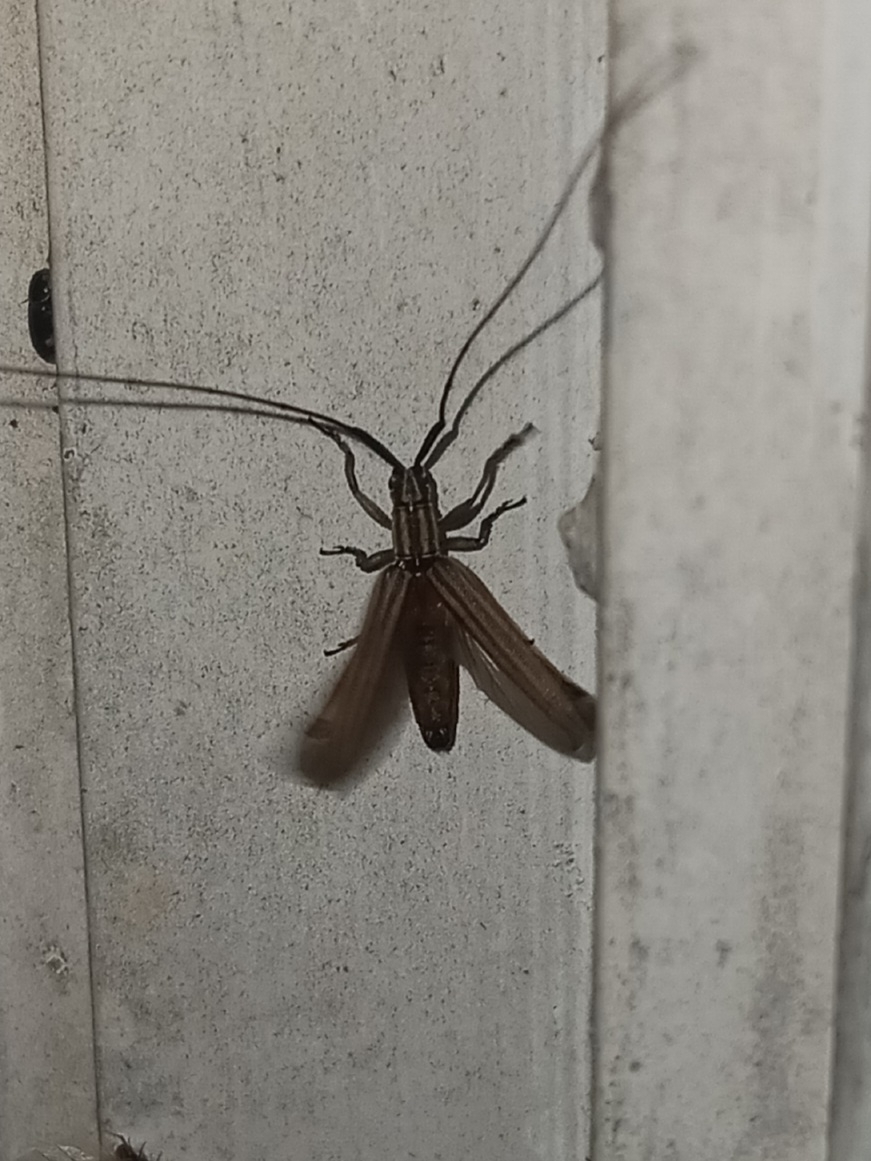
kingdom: Animalia
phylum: Arthropoda
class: Insecta
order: Coleoptera
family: Cerambycidae
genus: Hippopsis
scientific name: Hippopsis
